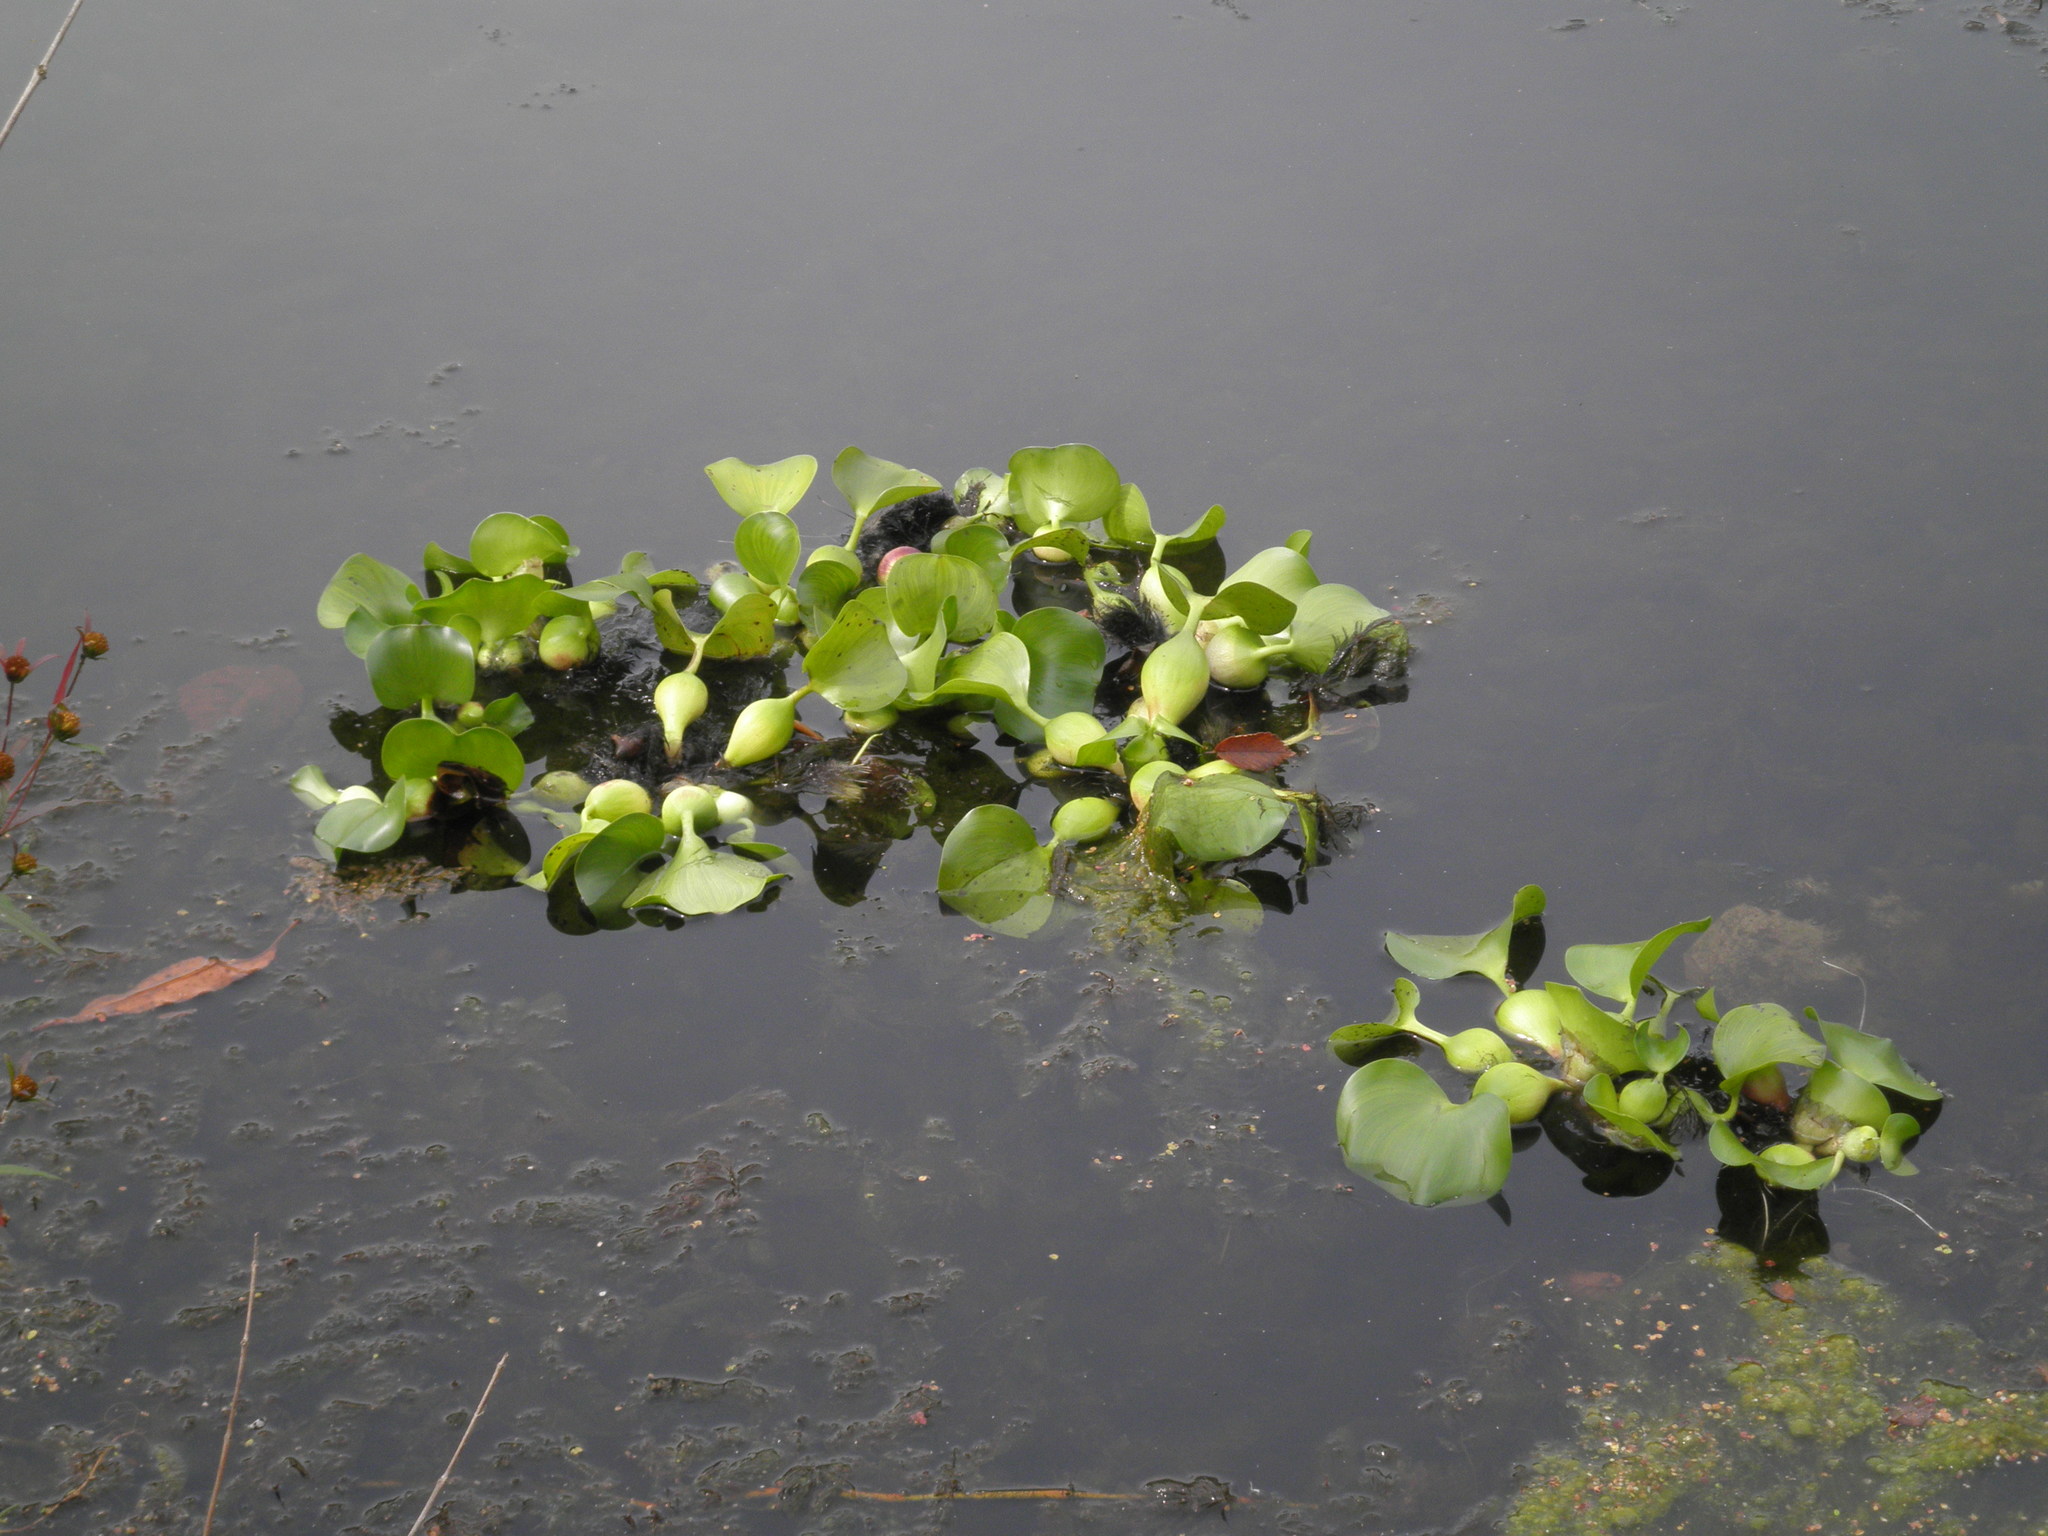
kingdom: Plantae
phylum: Tracheophyta
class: Liliopsida
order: Commelinales
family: Pontederiaceae
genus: Pontederia
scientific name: Pontederia crassipes
